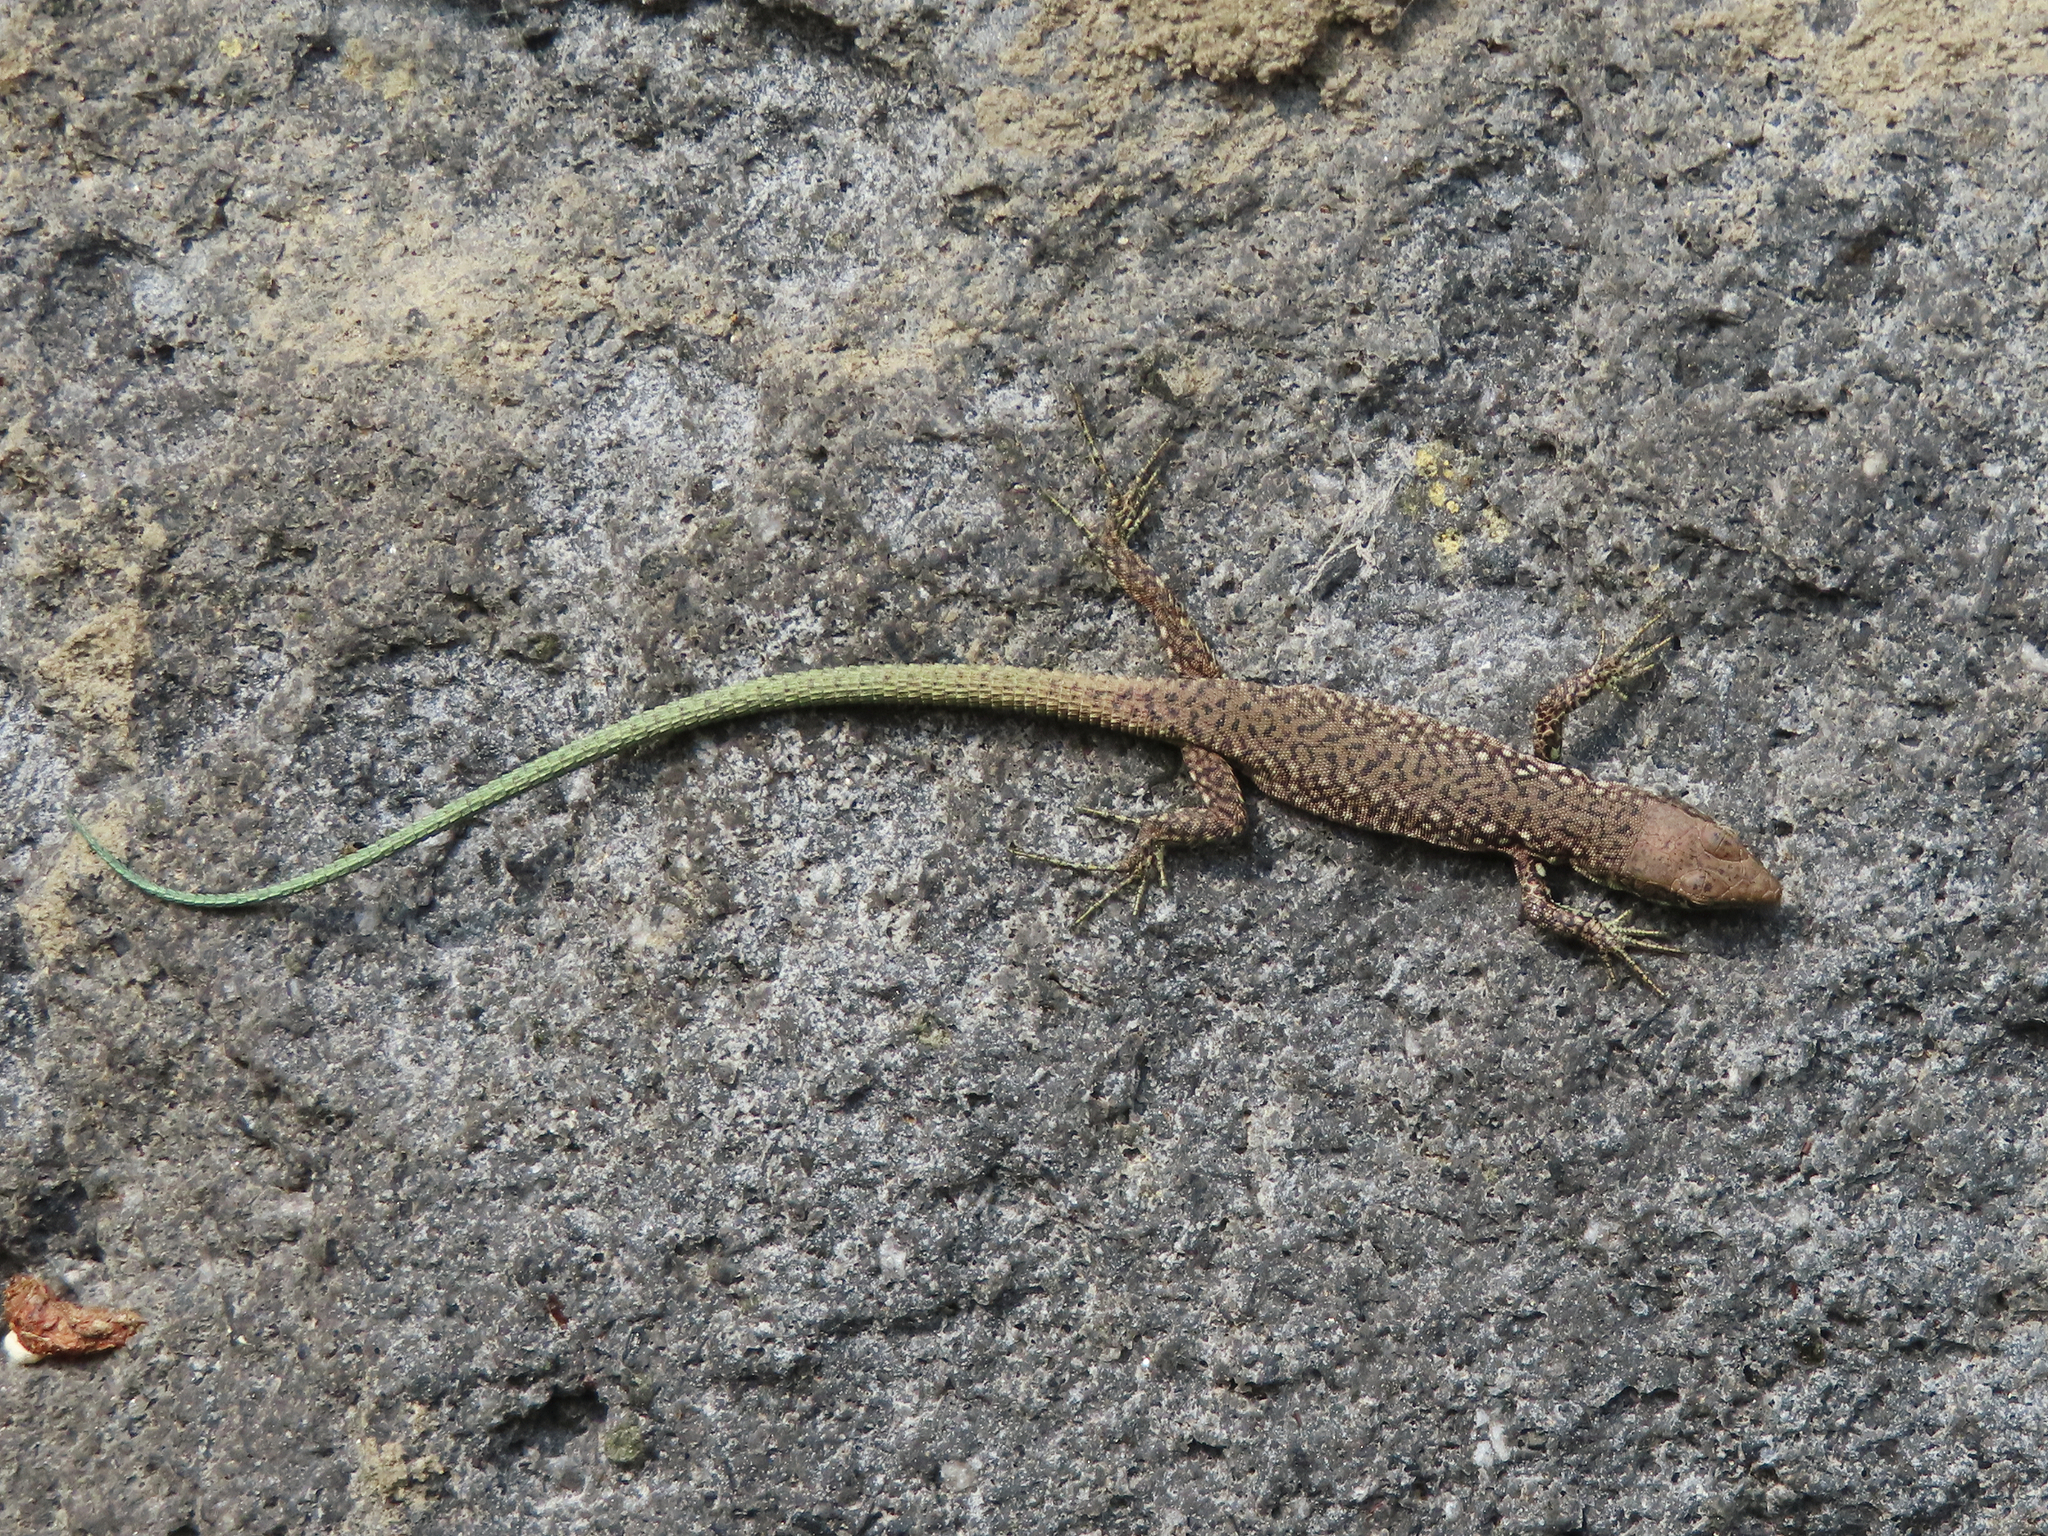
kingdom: Animalia
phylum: Chordata
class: Squamata
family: Lacertidae
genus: Darevskia
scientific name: Darevskia raddei
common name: Radde's lizard
